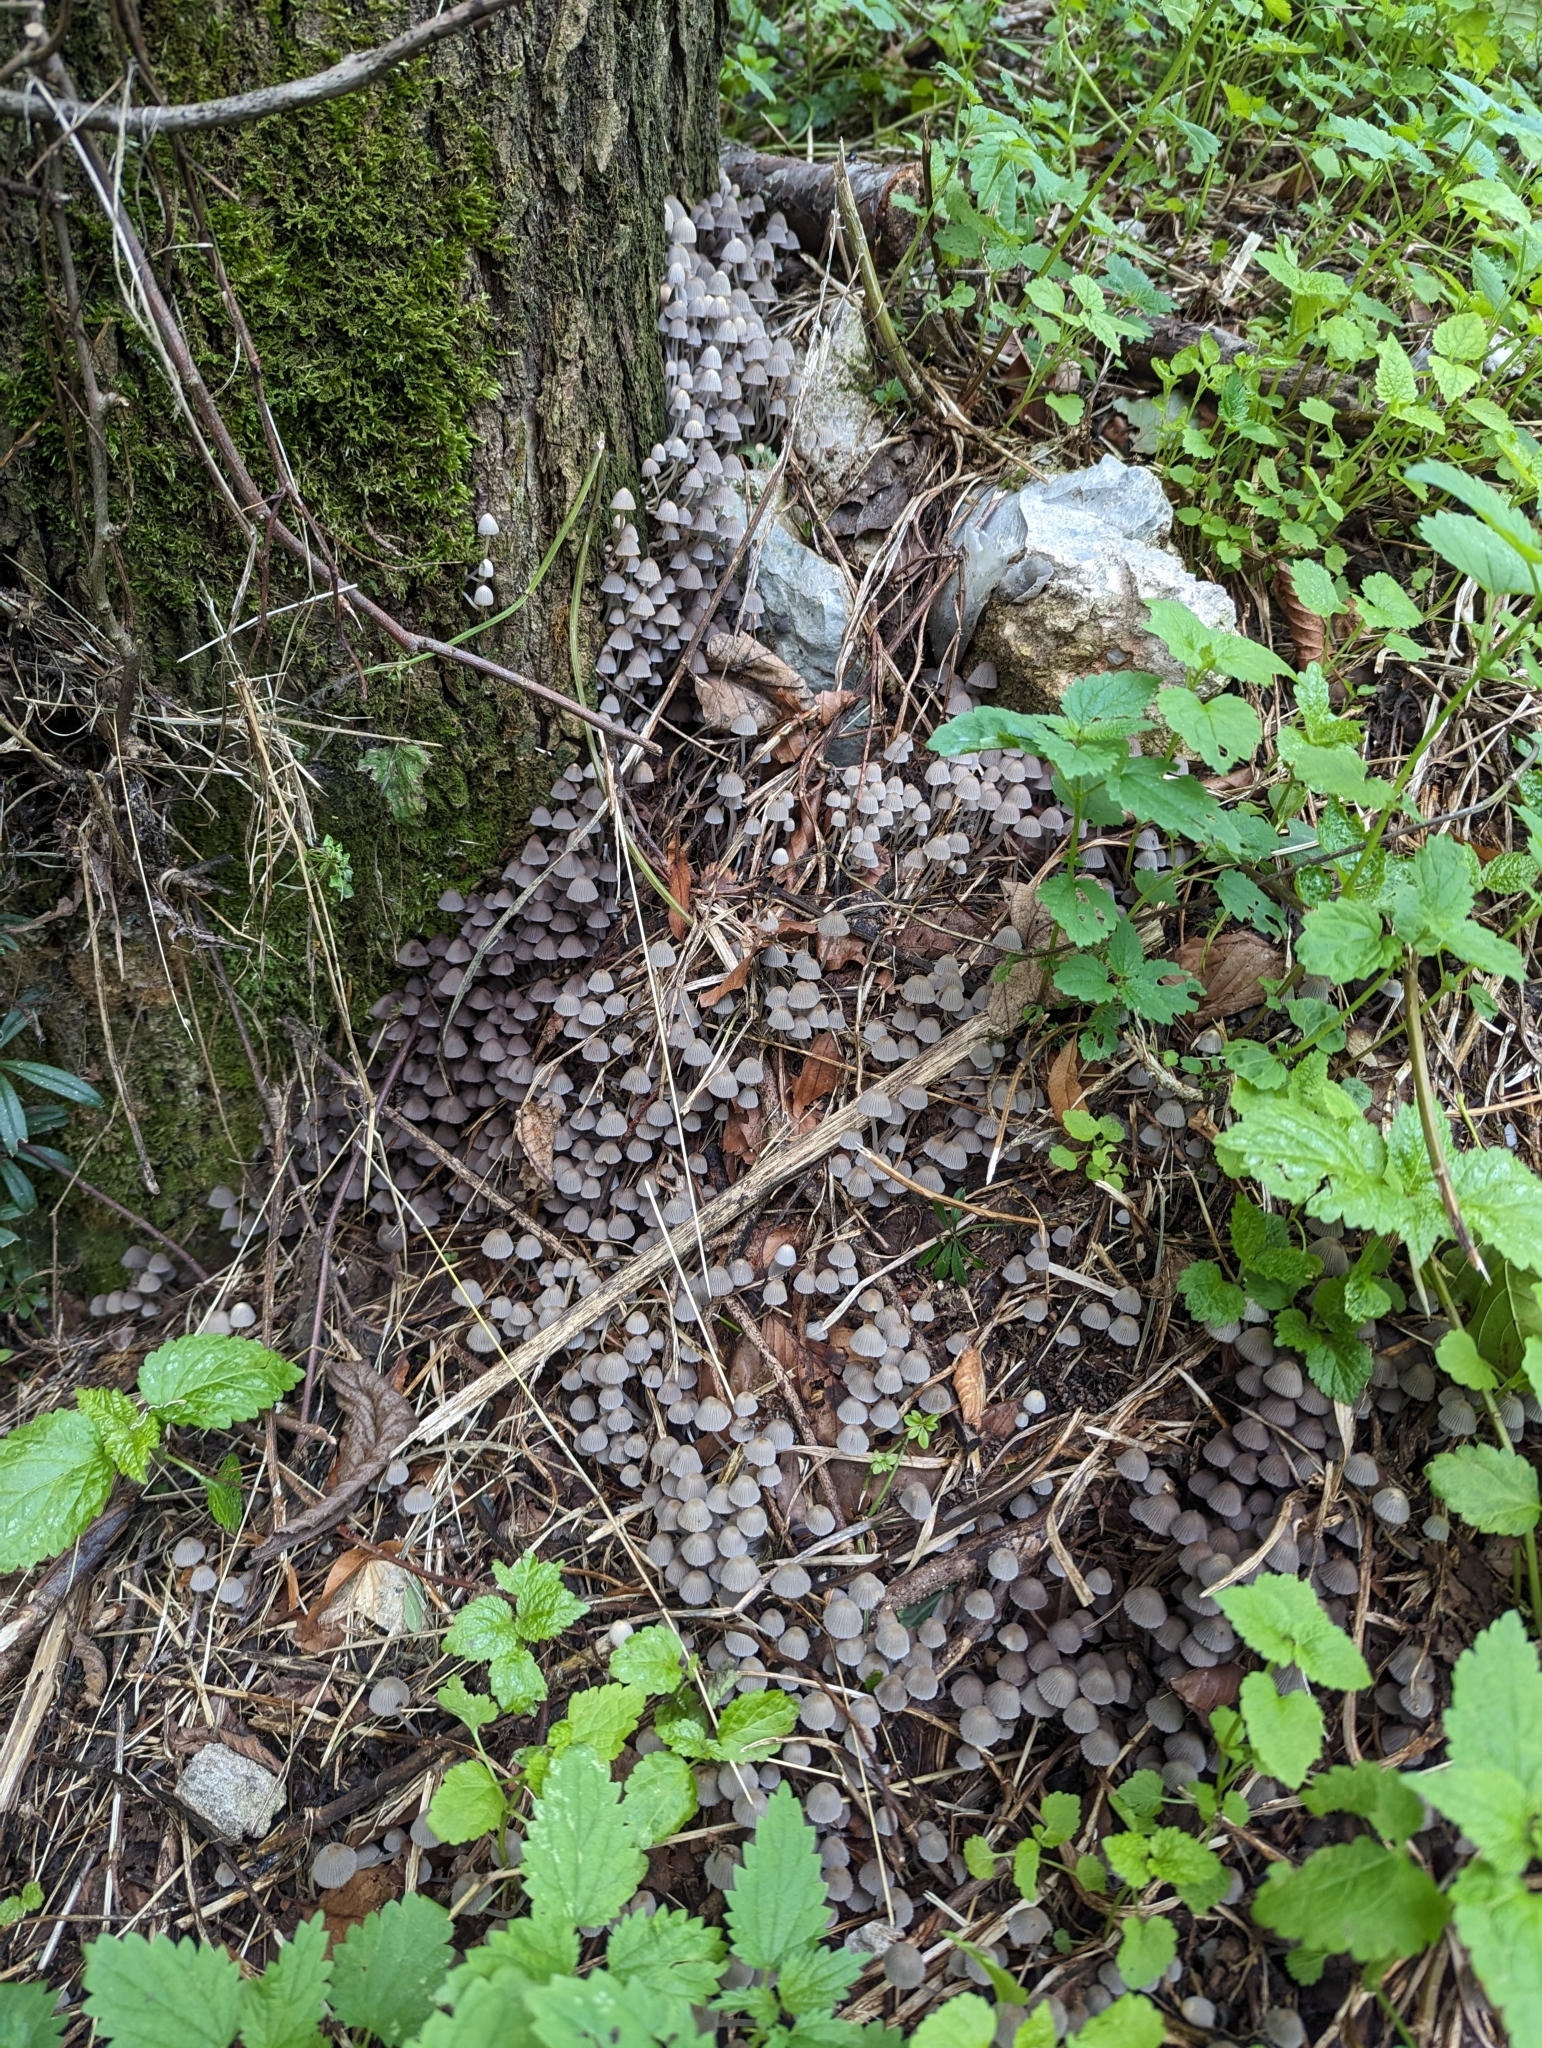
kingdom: Fungi
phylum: Basidiomycota
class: Agaricomycetes
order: Agaricales
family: Psathyrellaceae
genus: Coprinellus
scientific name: Coprinellus disseminatus
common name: Fairies' bonnets
